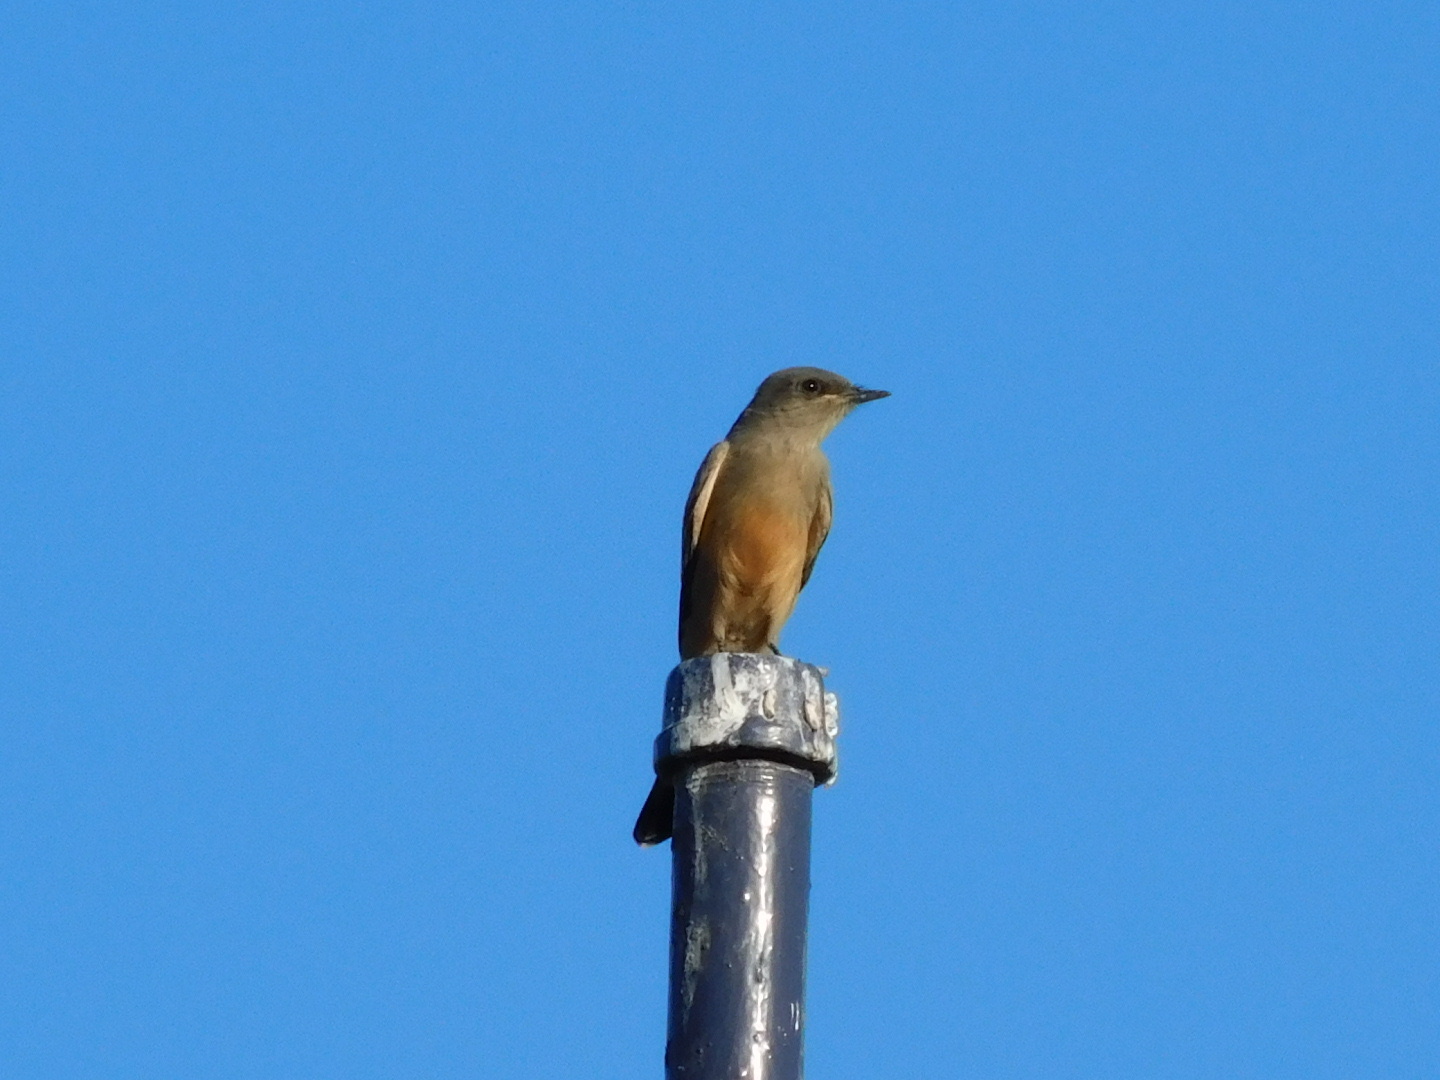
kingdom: Animalia
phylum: Chordata
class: Aves
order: Passeriformes
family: Tyrannidae
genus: Sayornis
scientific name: Sayornis saya
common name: Say's phoebe
